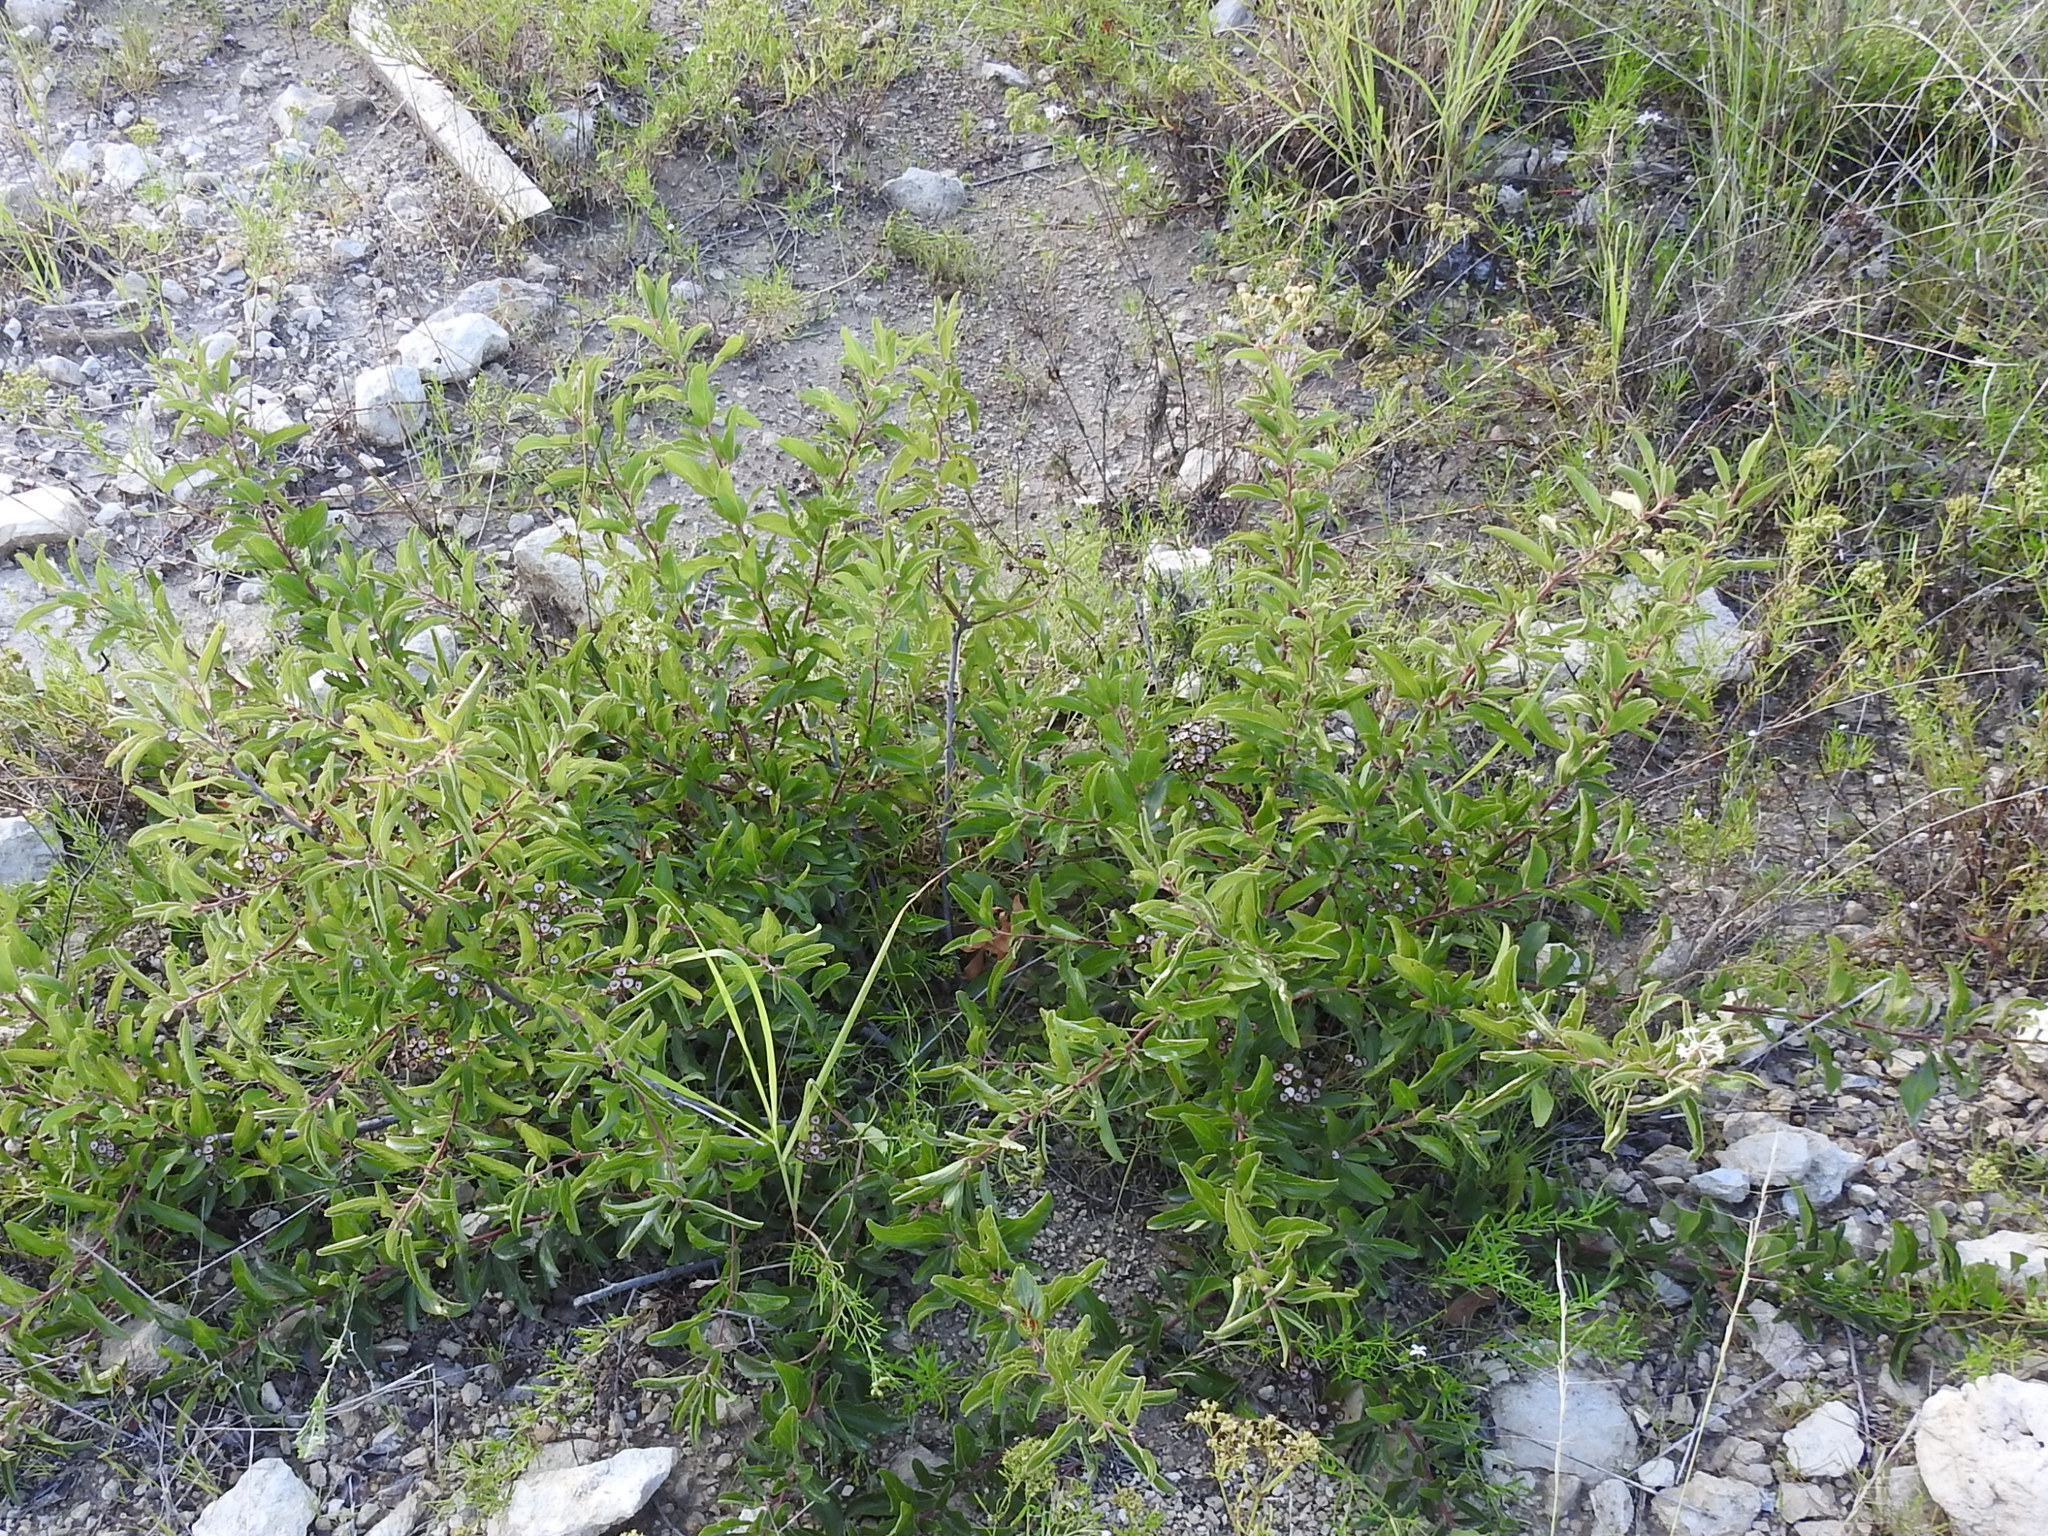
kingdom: Plantae
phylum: Tracheophyta
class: Magnoliopsida
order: Rosales
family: Rhamnaceae
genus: Ceanothus
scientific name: Ceanothus herbaceus
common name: Inland ceanothus
